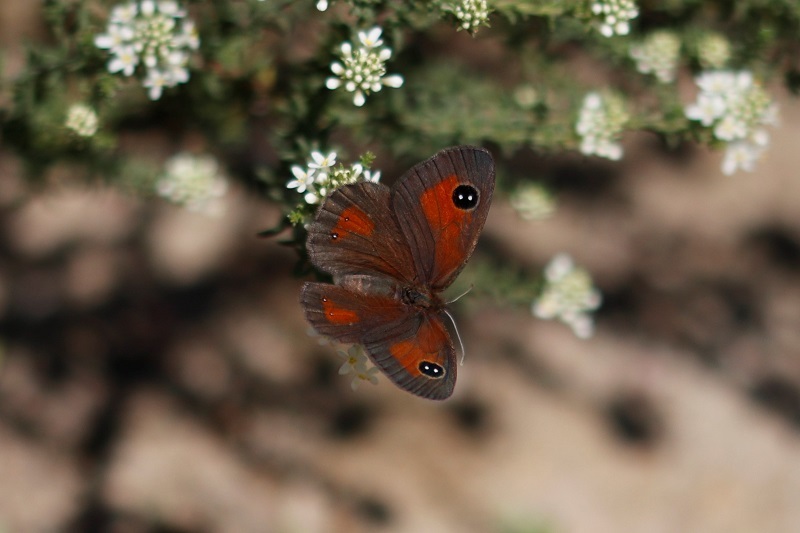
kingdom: Animalia
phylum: Arthropoda
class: Insecta
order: Lepidoptera
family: Nymphalidae
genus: Erebia
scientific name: Erebia
